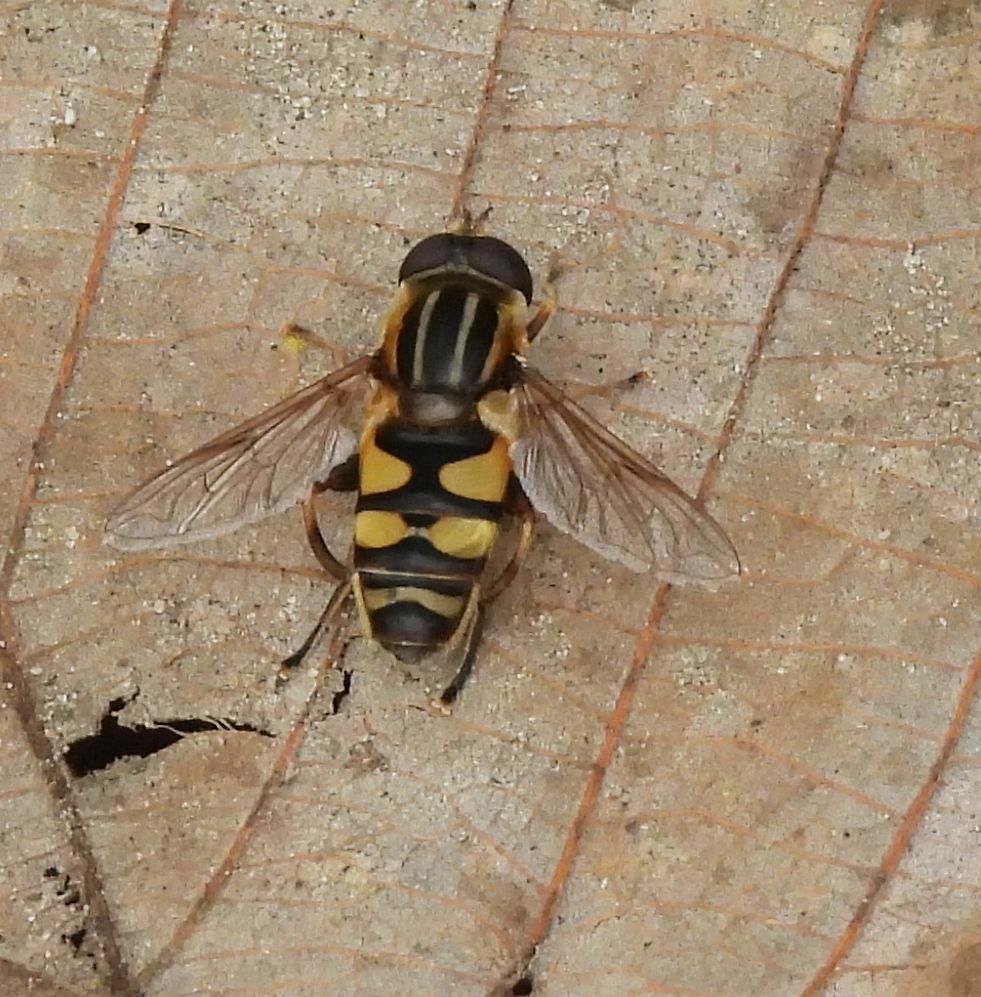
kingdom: Animalia
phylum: Arthropoda
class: Insecta
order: Diptera
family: Syrphidae
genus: Helophilus
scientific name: Helophilus fasciatus
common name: Narrow-headed marsh fly
